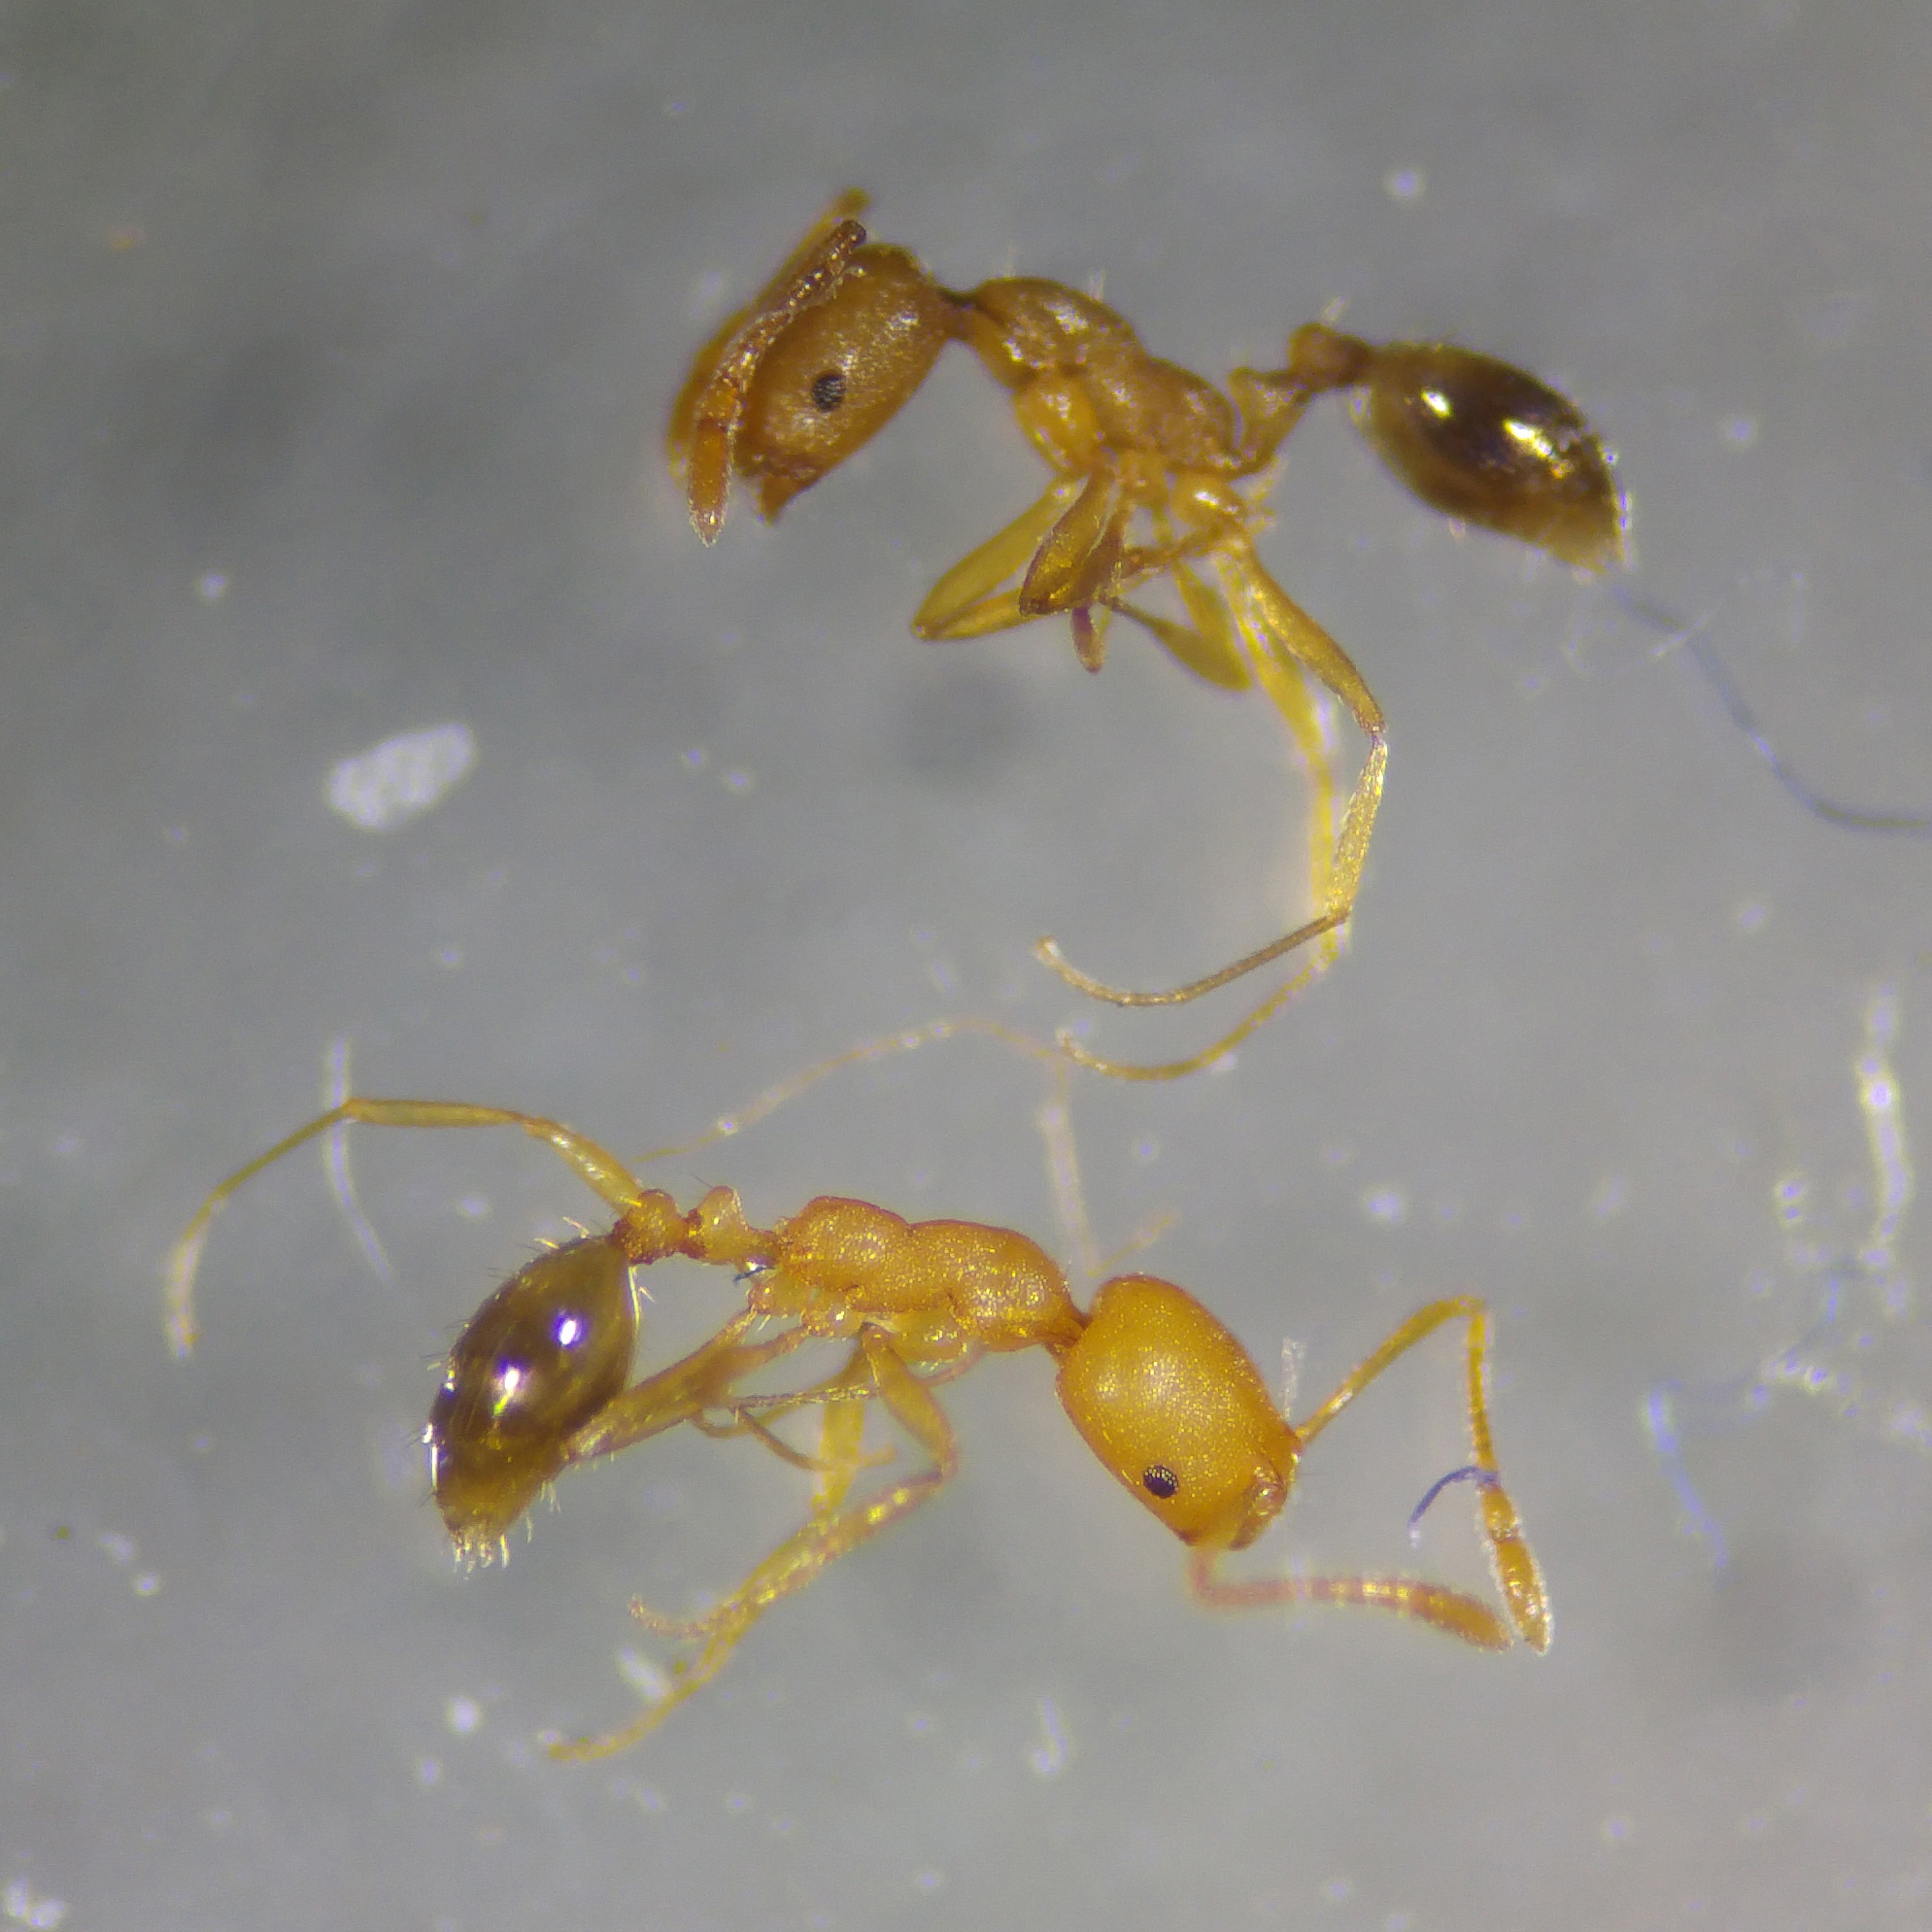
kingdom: Animalia
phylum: Arthropoda
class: Insecta
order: Hymenoptera
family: Formicidae
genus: Monomorium
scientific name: Monomorium pharaonis
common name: Pharaoh ant
